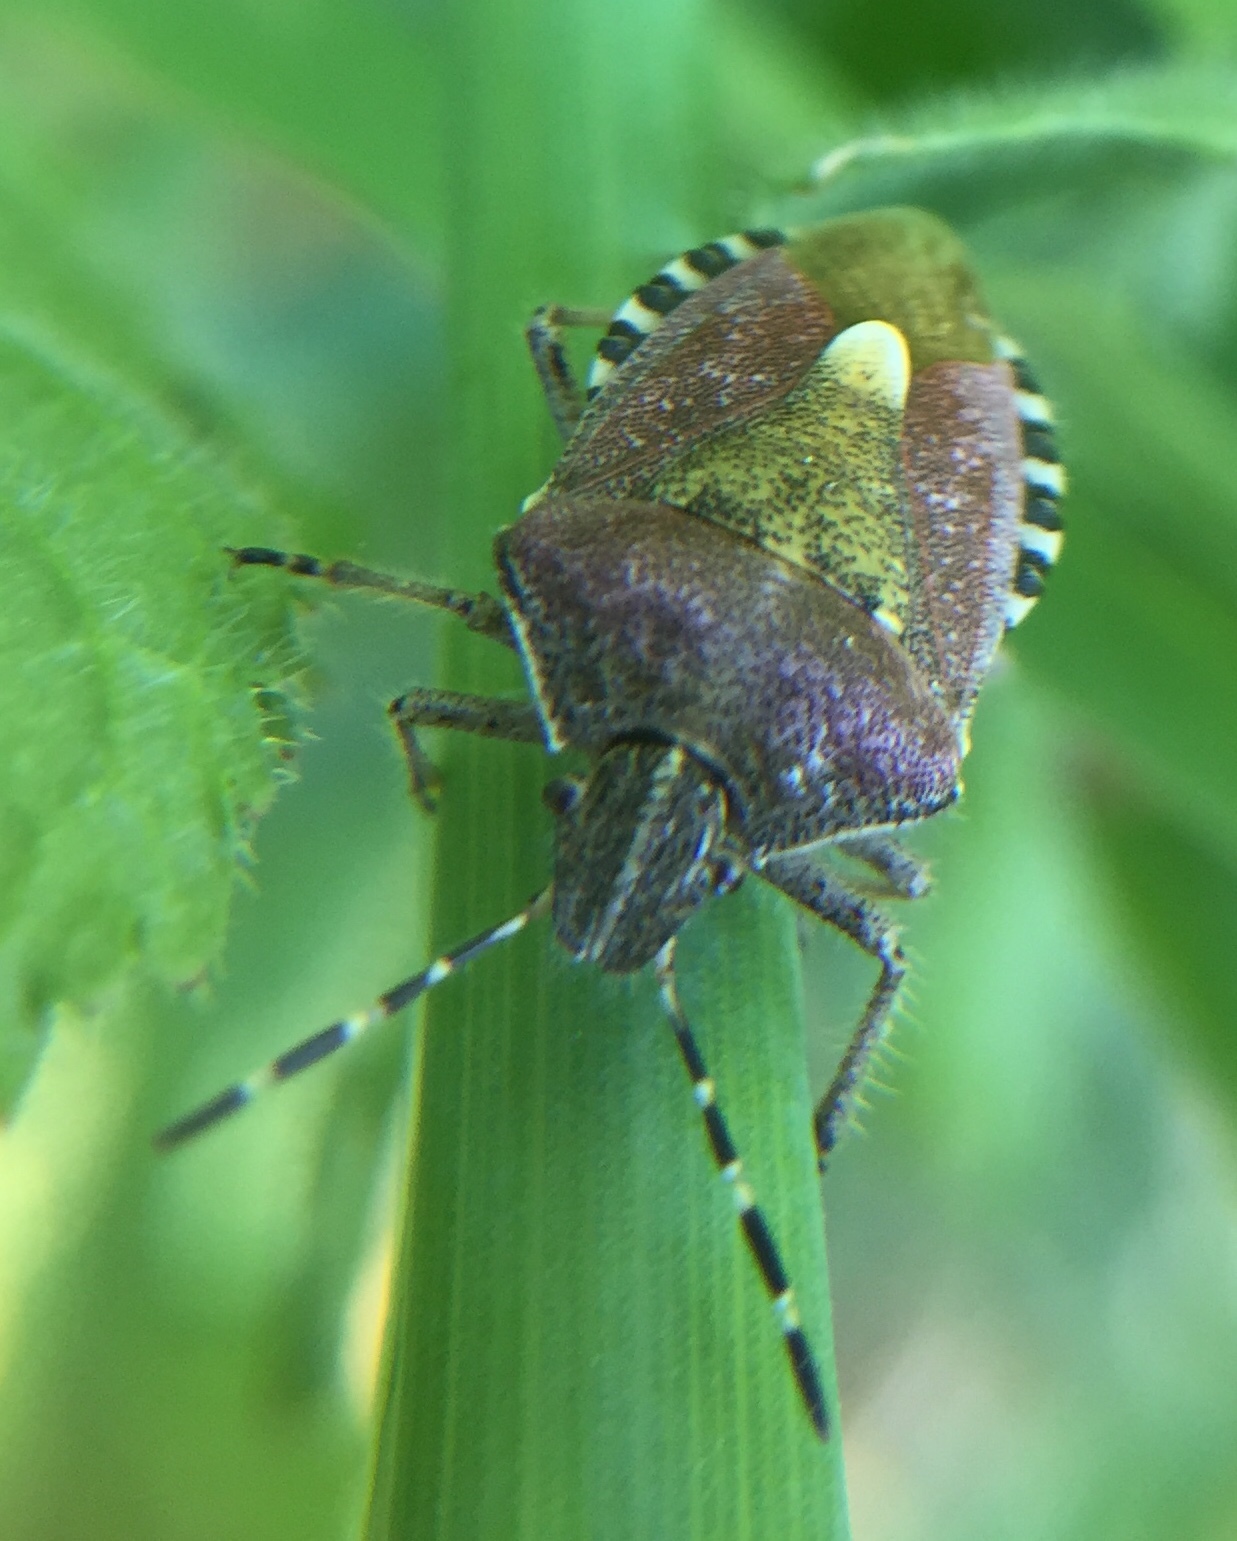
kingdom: Animalia
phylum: Arthropoda
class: Insecta
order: Hemiptera
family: Pentatomidae
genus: Dolycoris
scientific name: Dolycoris baccarum
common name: Sloe bug
